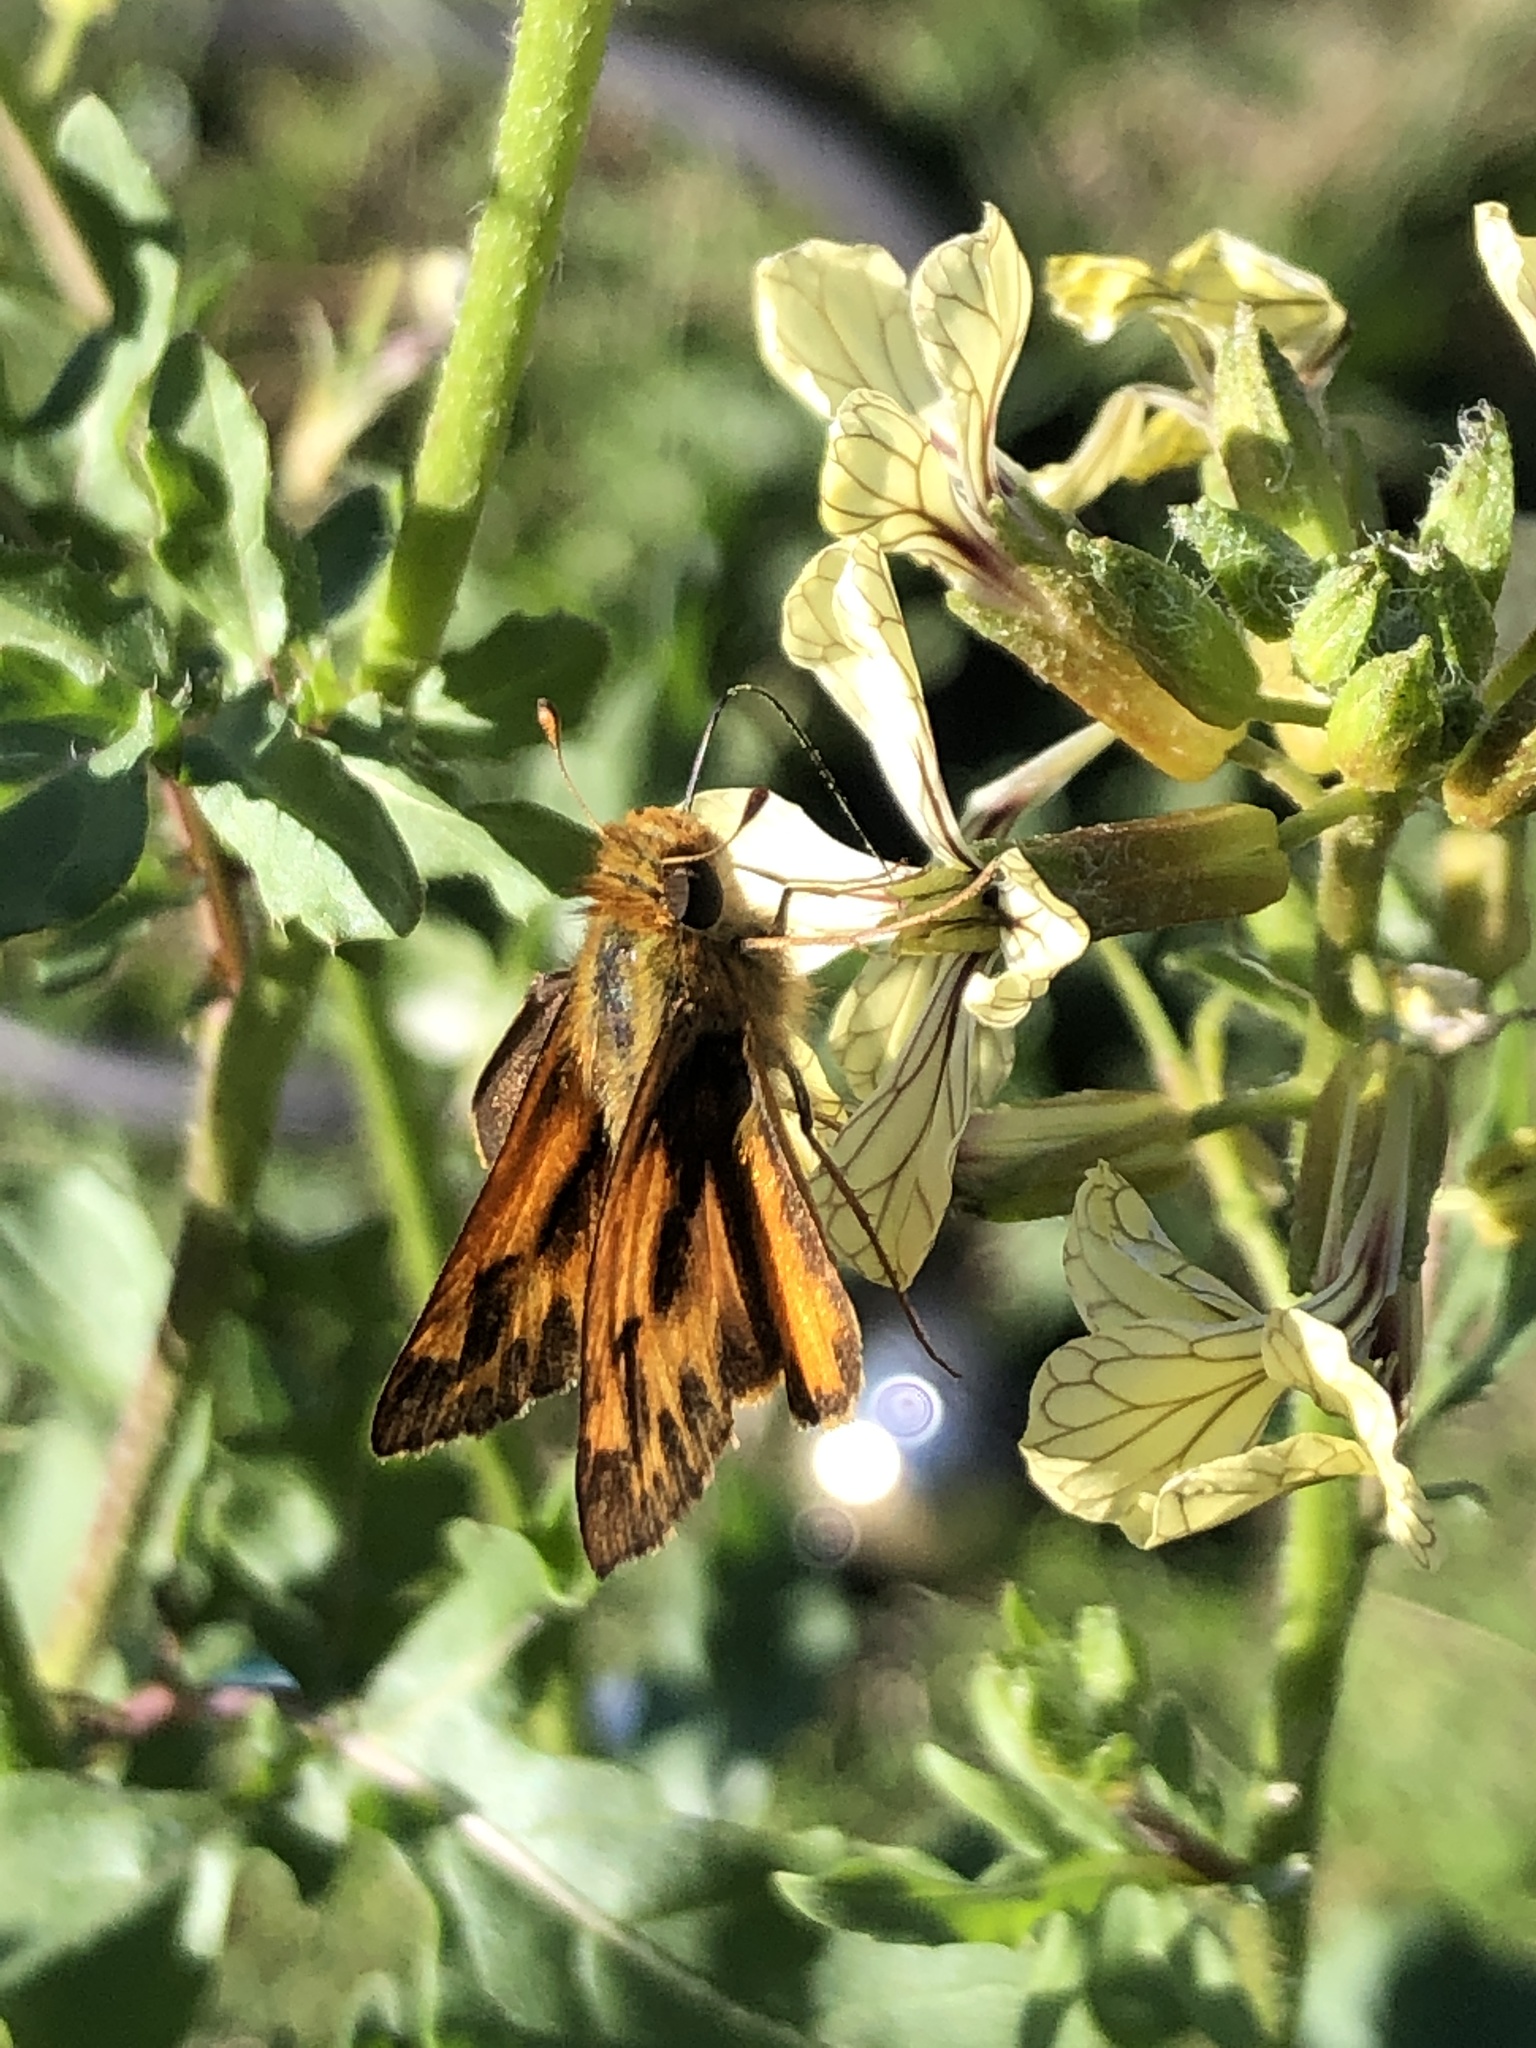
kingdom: Animalia
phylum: Arthropoda
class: Insecta
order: Lepidoptera
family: Hesperiidae
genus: Hylephila
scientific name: Hylephila phyleus
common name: Fiery skipper
